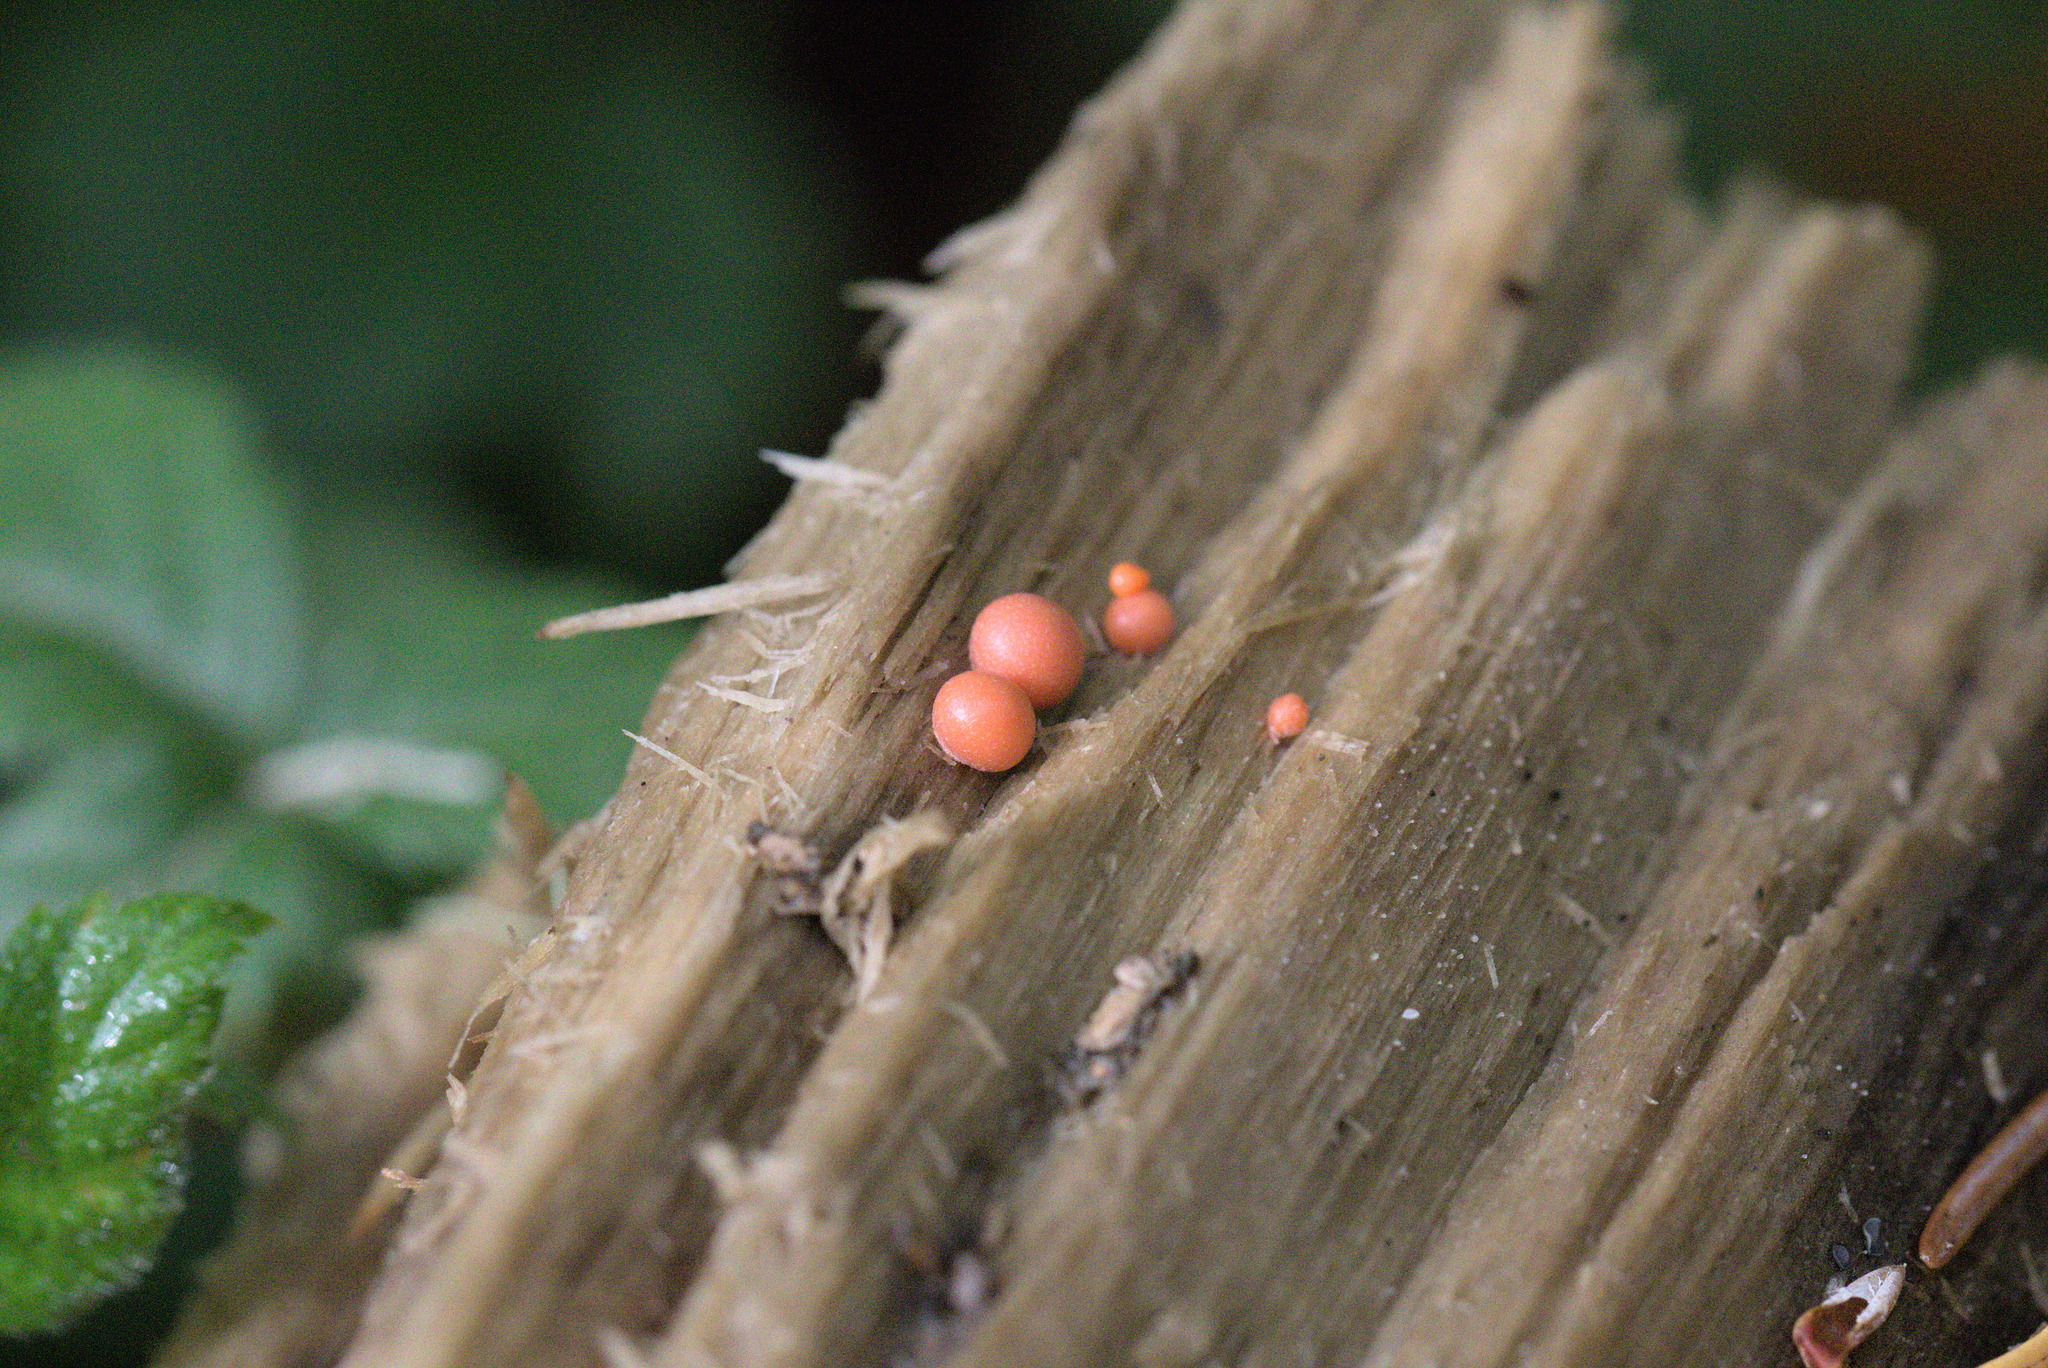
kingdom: Protozoa
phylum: Mycetozoa
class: Myxomycetes
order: Cribrariales
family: Tubiferaceae
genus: Lycogala
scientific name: Lycogala epidendrum
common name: Wolf's milk
